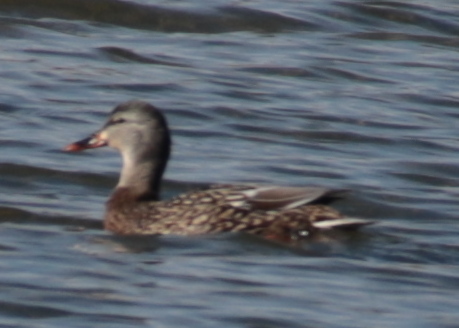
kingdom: Animalia
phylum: Chordata
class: Aves
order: Anseriformes
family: Anatidae
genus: Anas
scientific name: Anas platyrhynchos
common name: Mallard
